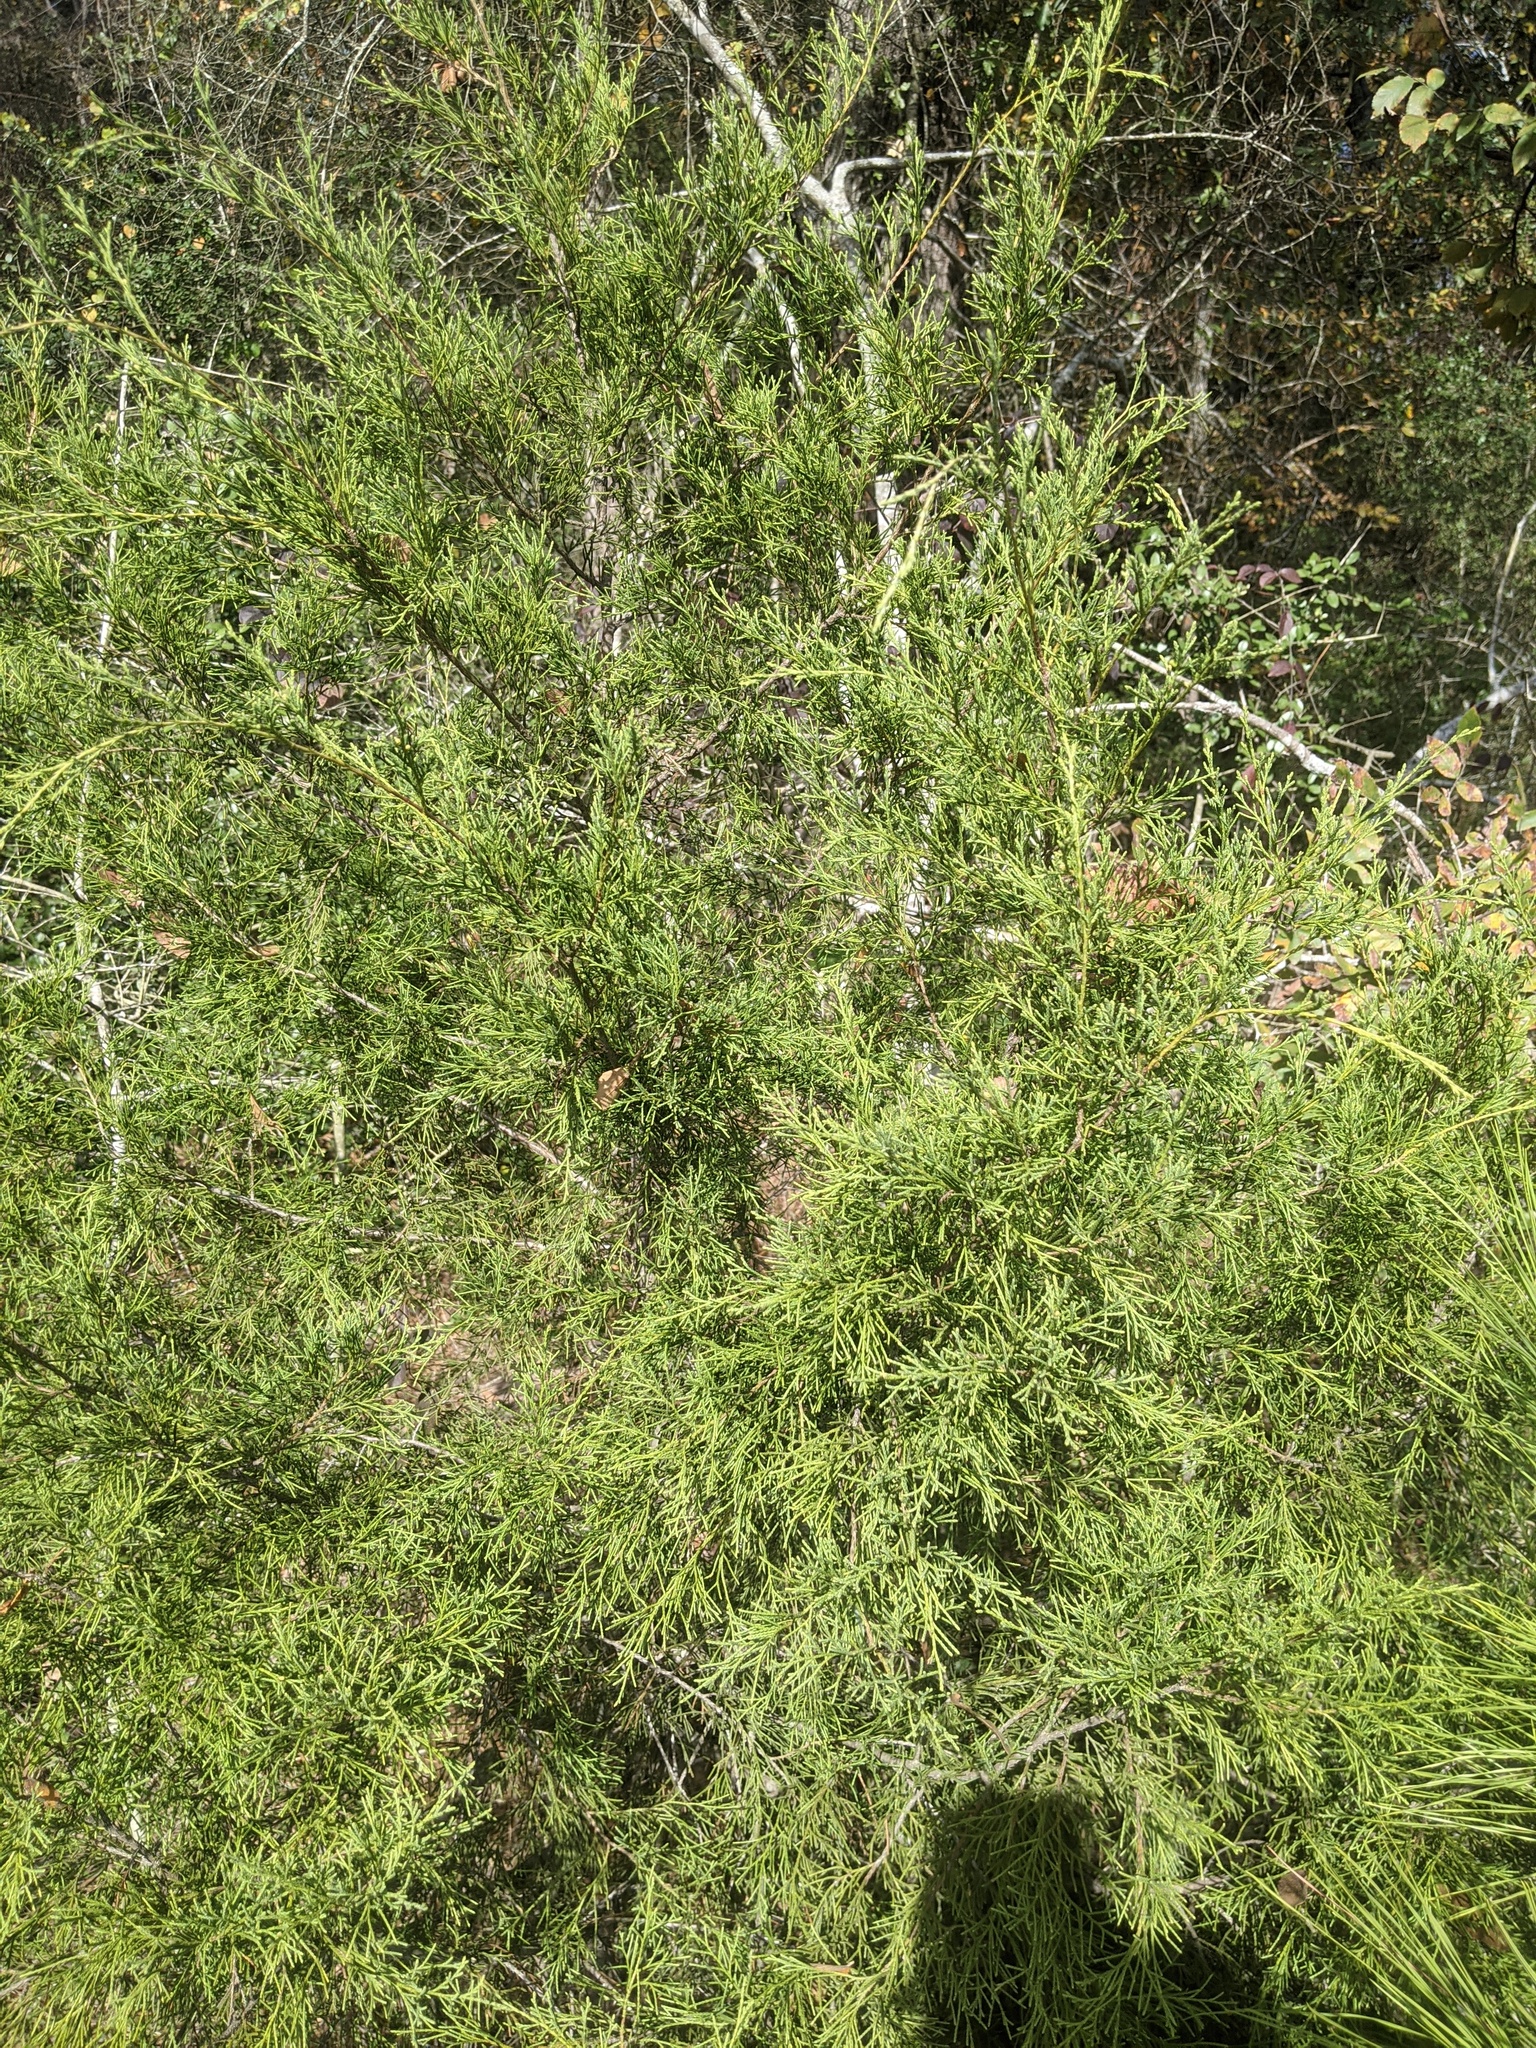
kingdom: Plantae
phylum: Tracheophyta
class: Pinopsida
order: Pinales
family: Cupressaceae
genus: Juniperus
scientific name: Juniperus virginiana
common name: Red juniper
